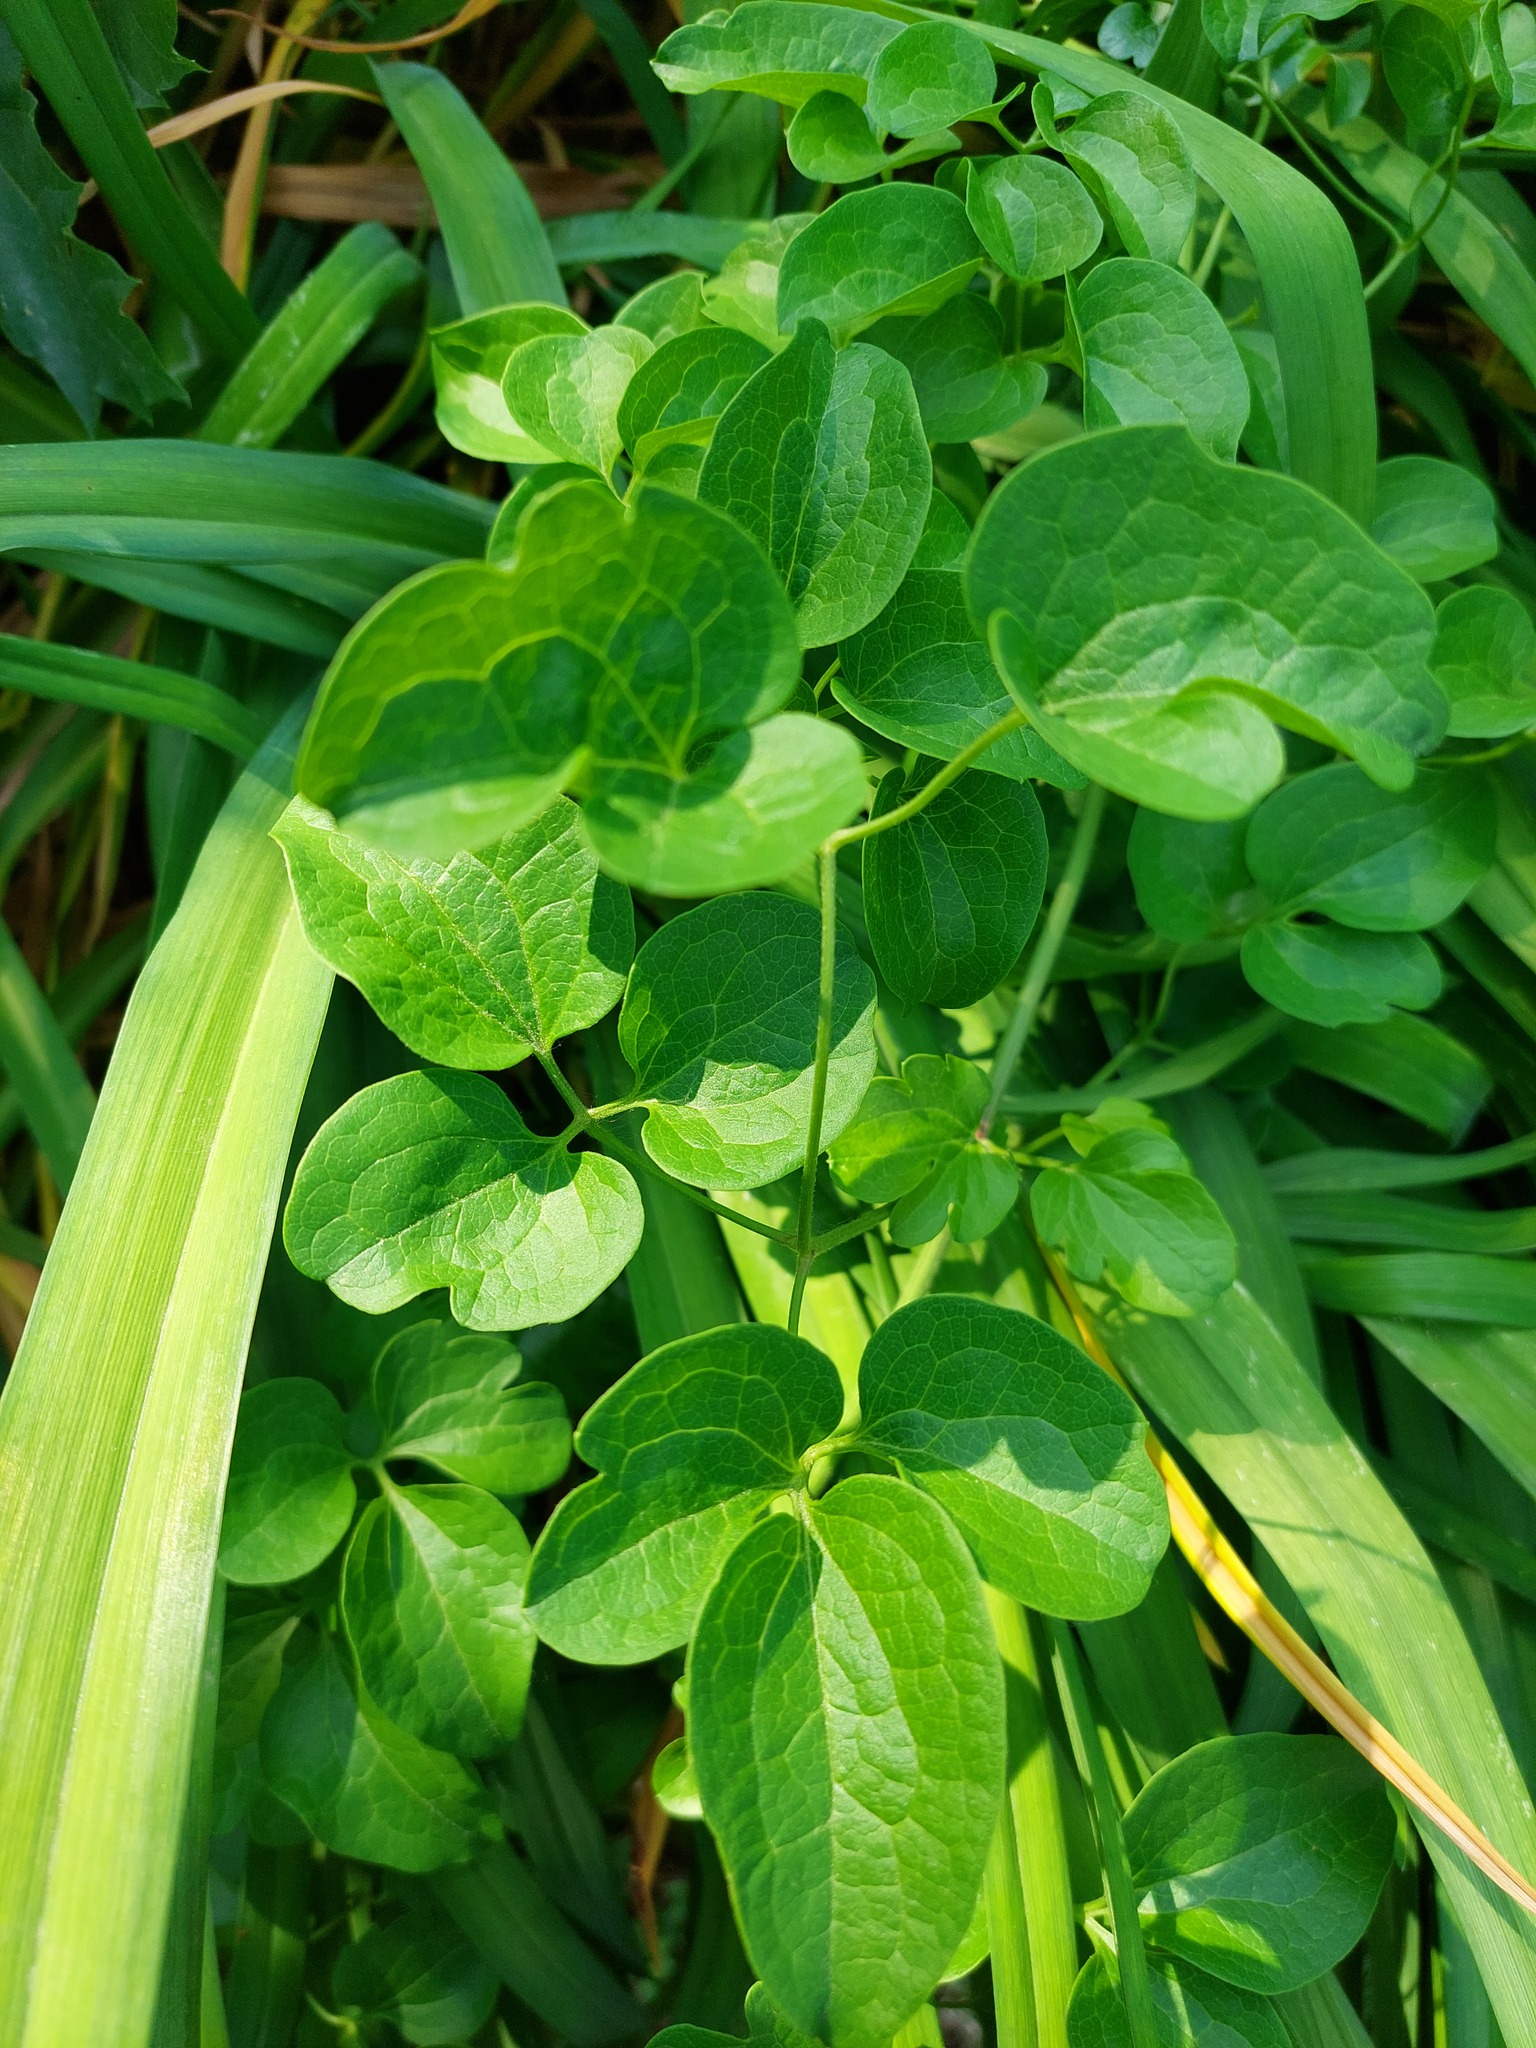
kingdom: Plantae
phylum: Tracheophyta
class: Magnoliopsida
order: Ranunculales
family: Ranunculaceae
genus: Clematis
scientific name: Clematis terniflora
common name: Sweet autumn clematis
